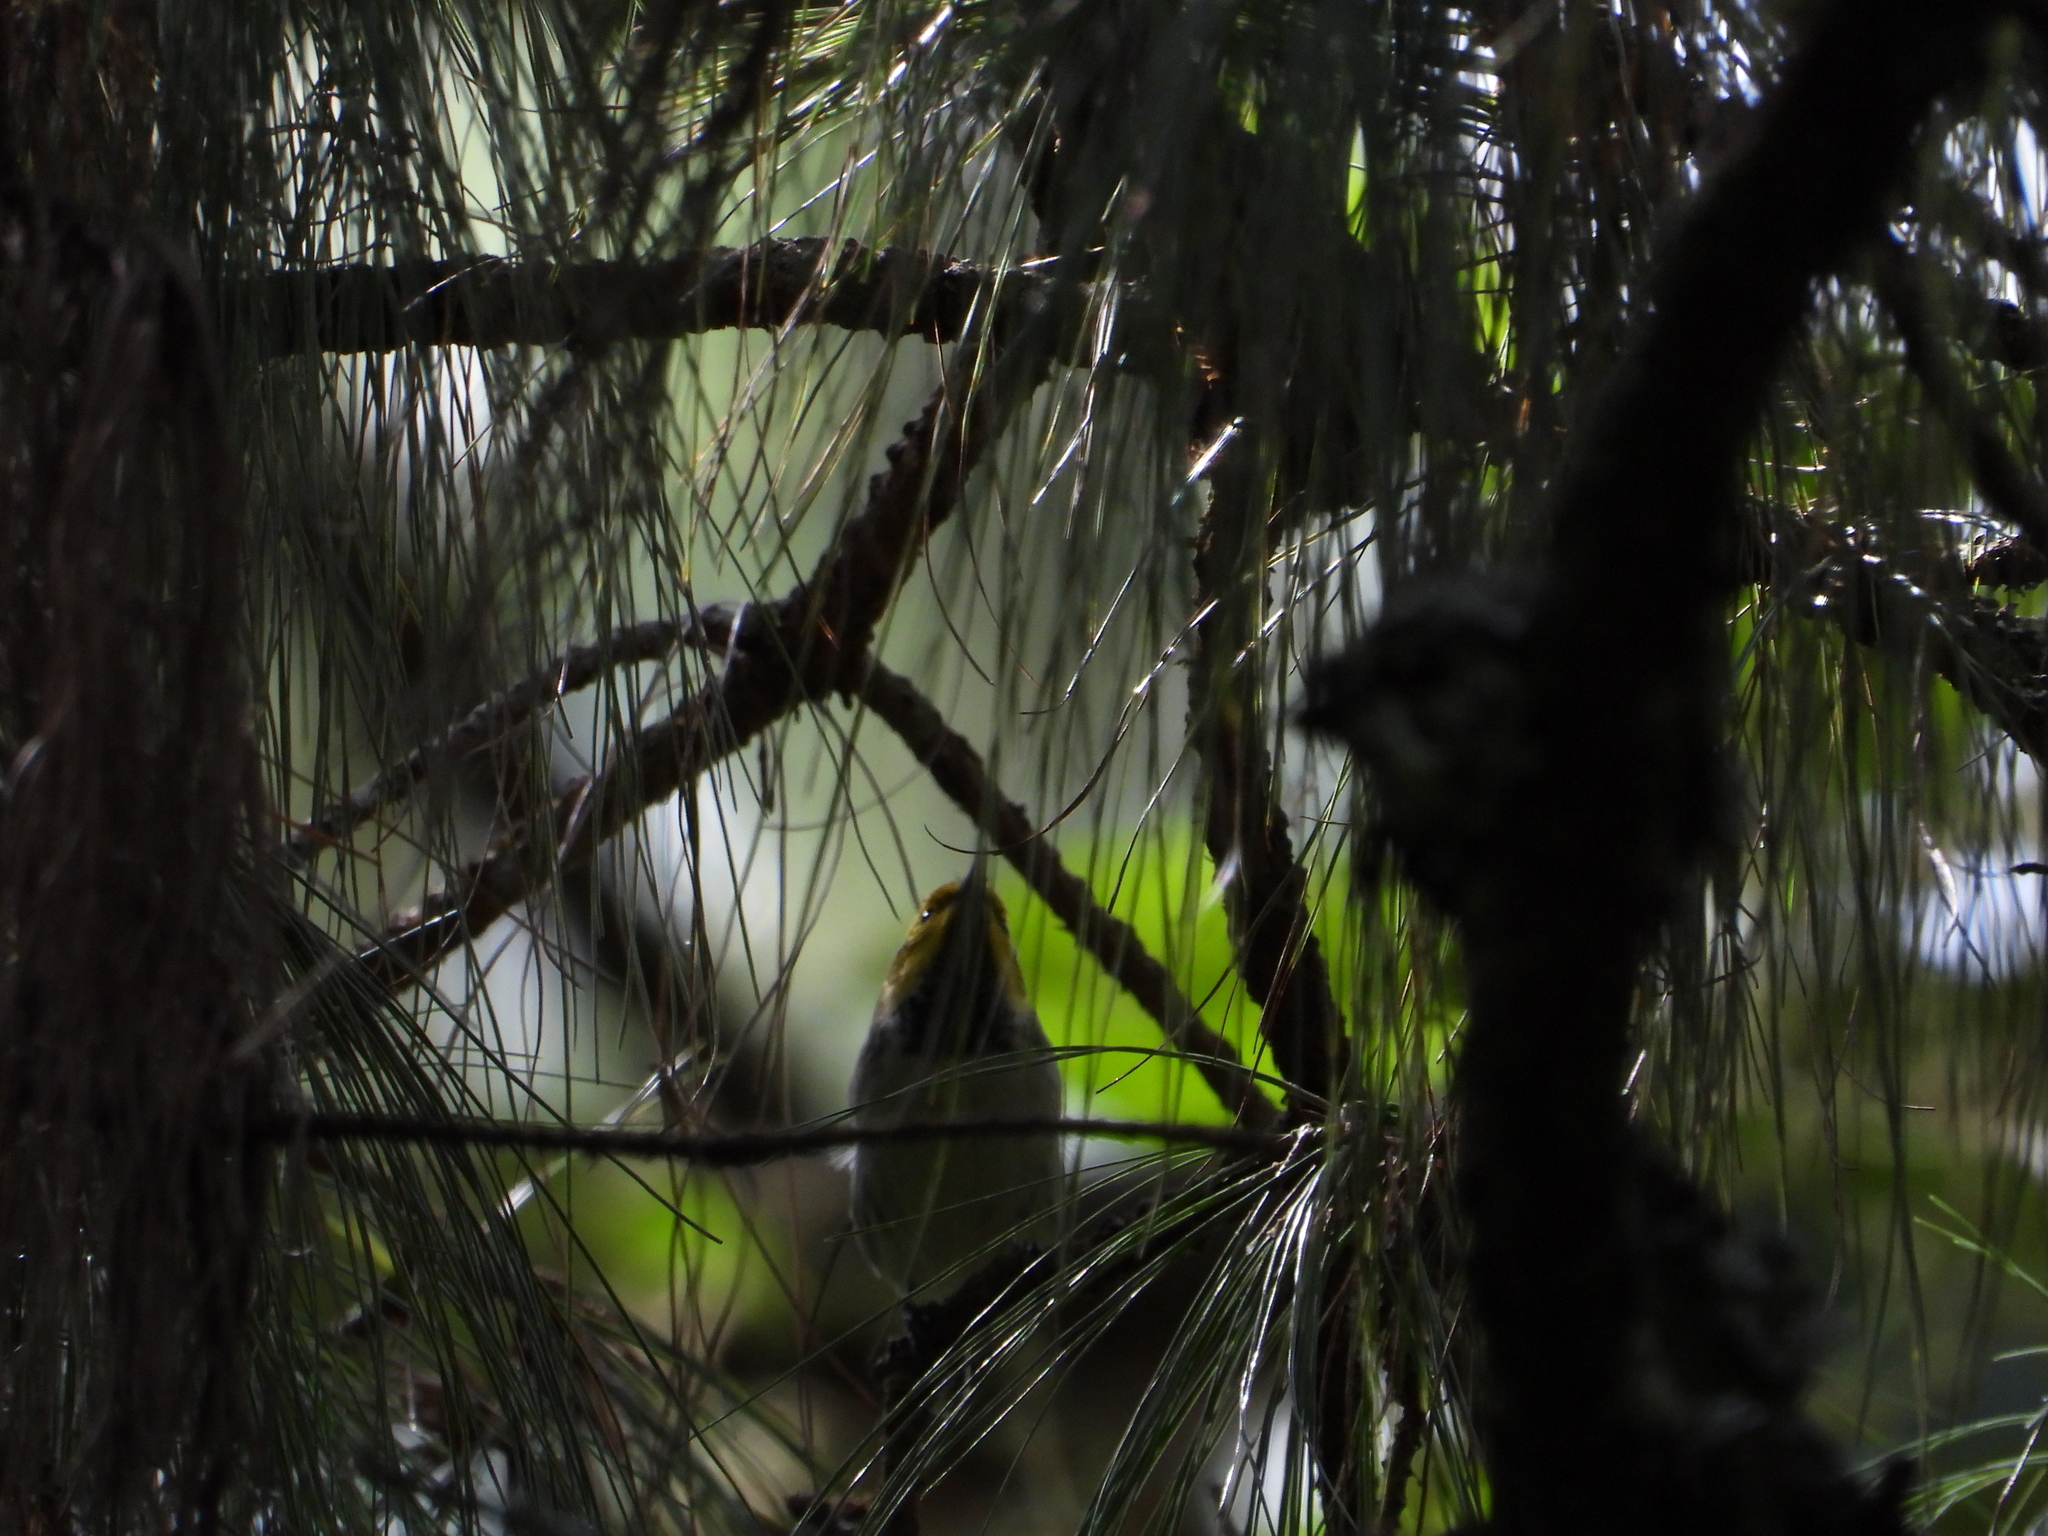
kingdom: Animalia
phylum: Chordata
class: Aves
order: Passeriformes
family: Parulidae
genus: Setophaga
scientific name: Setophaga occidentalis
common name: Hermit warbler
